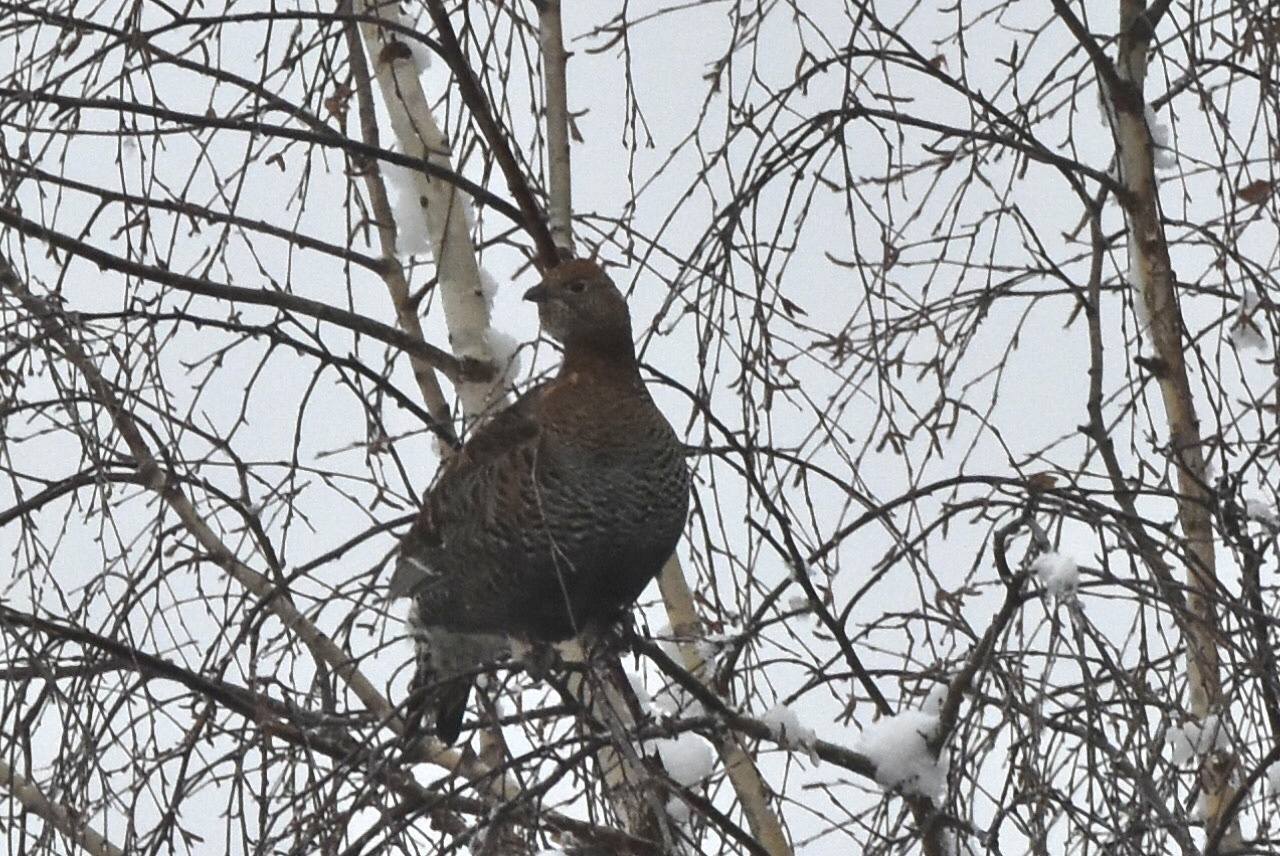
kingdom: Animalia
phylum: Chordata
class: Aves
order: Galliformes
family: Phasianidae
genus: Tetrao
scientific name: Tetrao urogallus
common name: Western capercaillie
